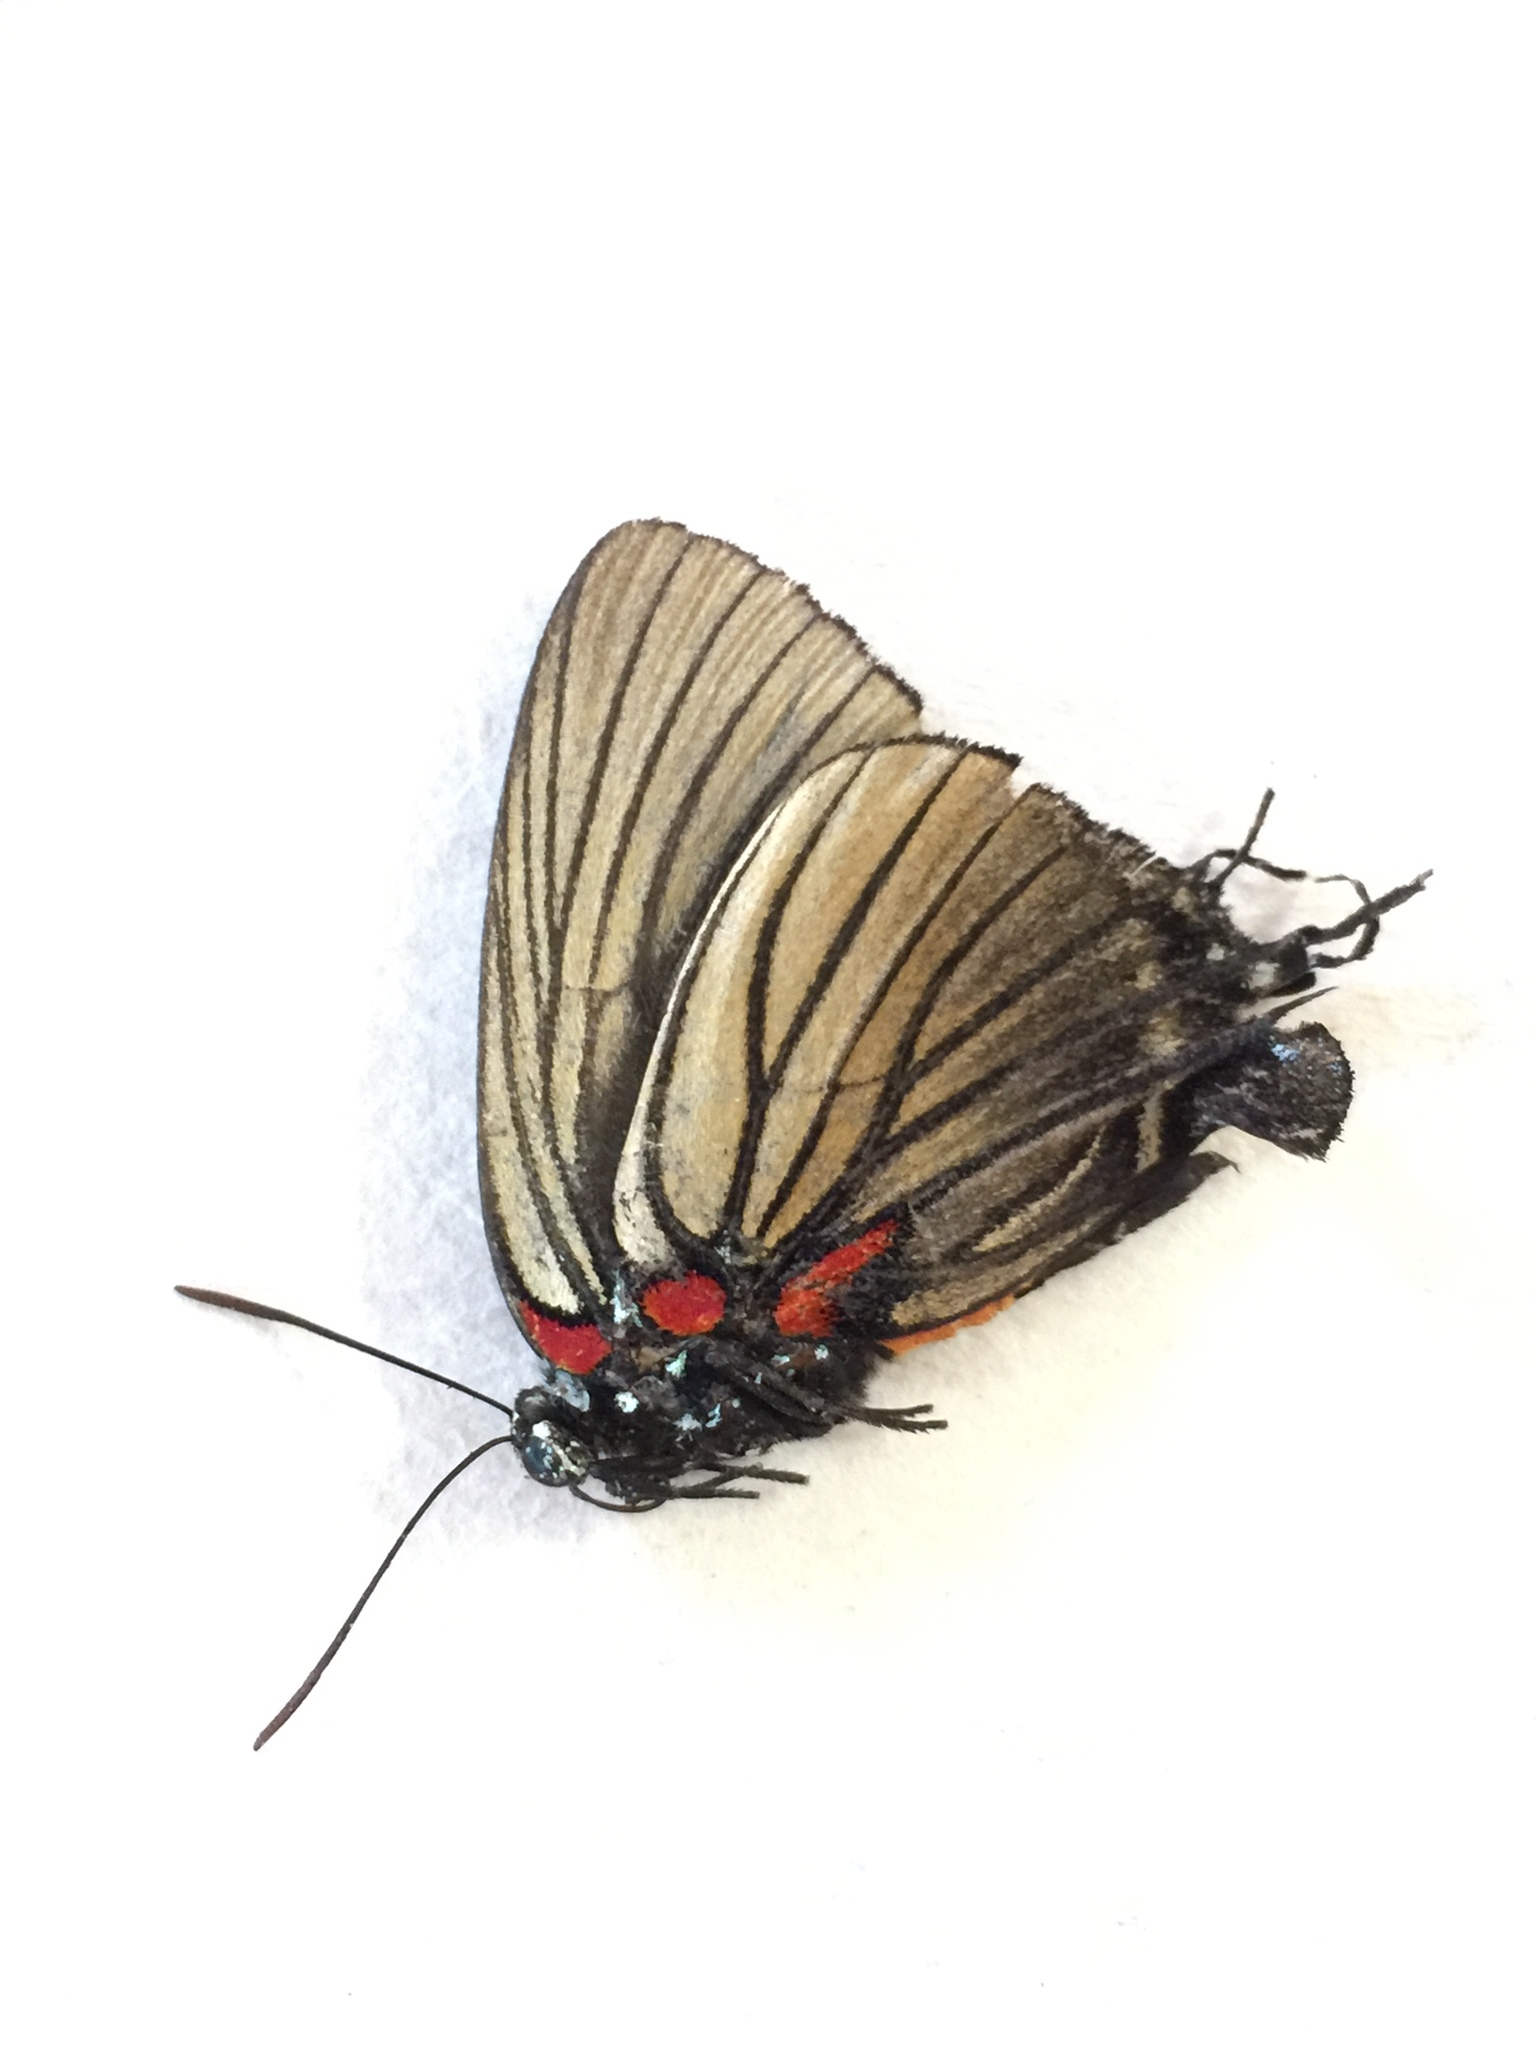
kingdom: Animalia
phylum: Arthropoda
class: Insecta
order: Lepidoptera
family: Lycaenidae
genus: Thecla
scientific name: Thecla polybe
